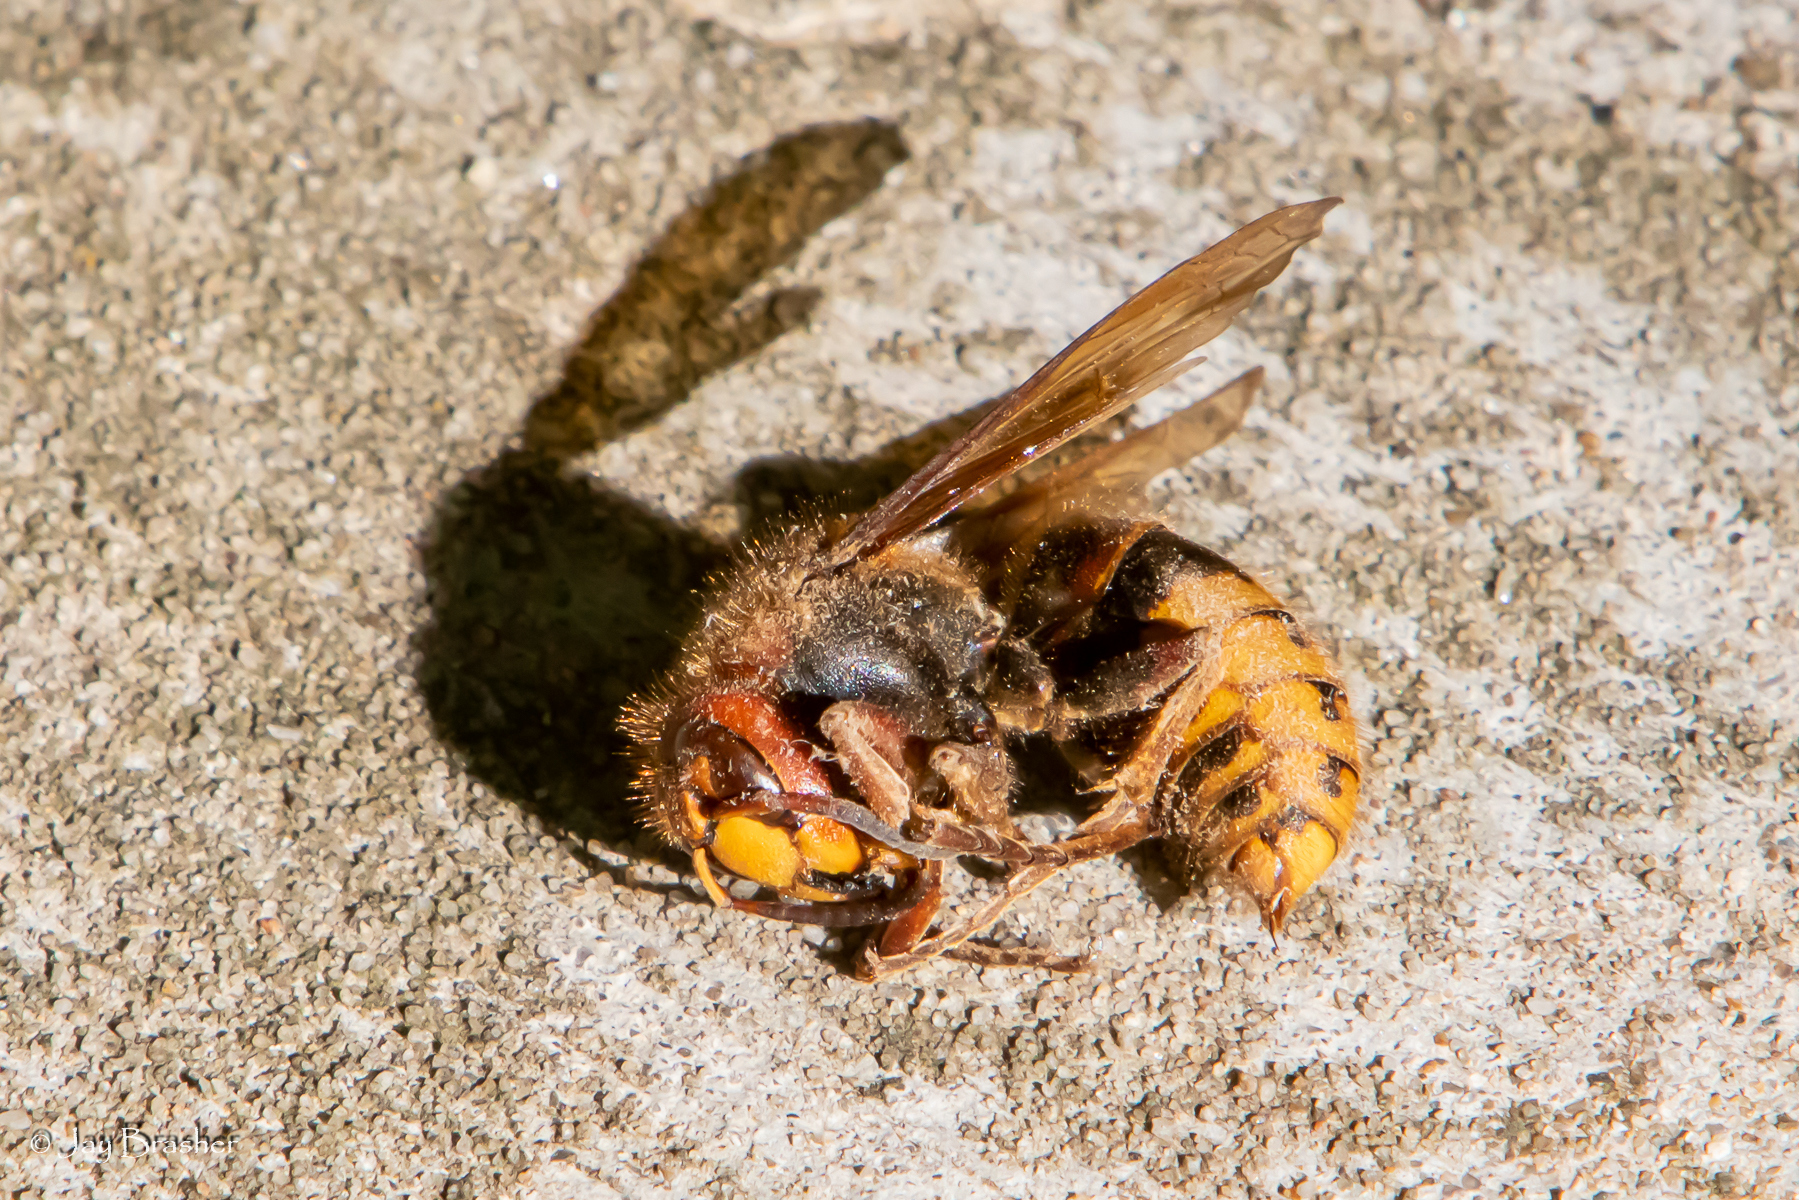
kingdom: Animalia
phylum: Arthropoda
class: Insecta
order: Hymenoptera
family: Vespidae
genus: Vespa
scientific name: Vespa crabro
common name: Hornet
